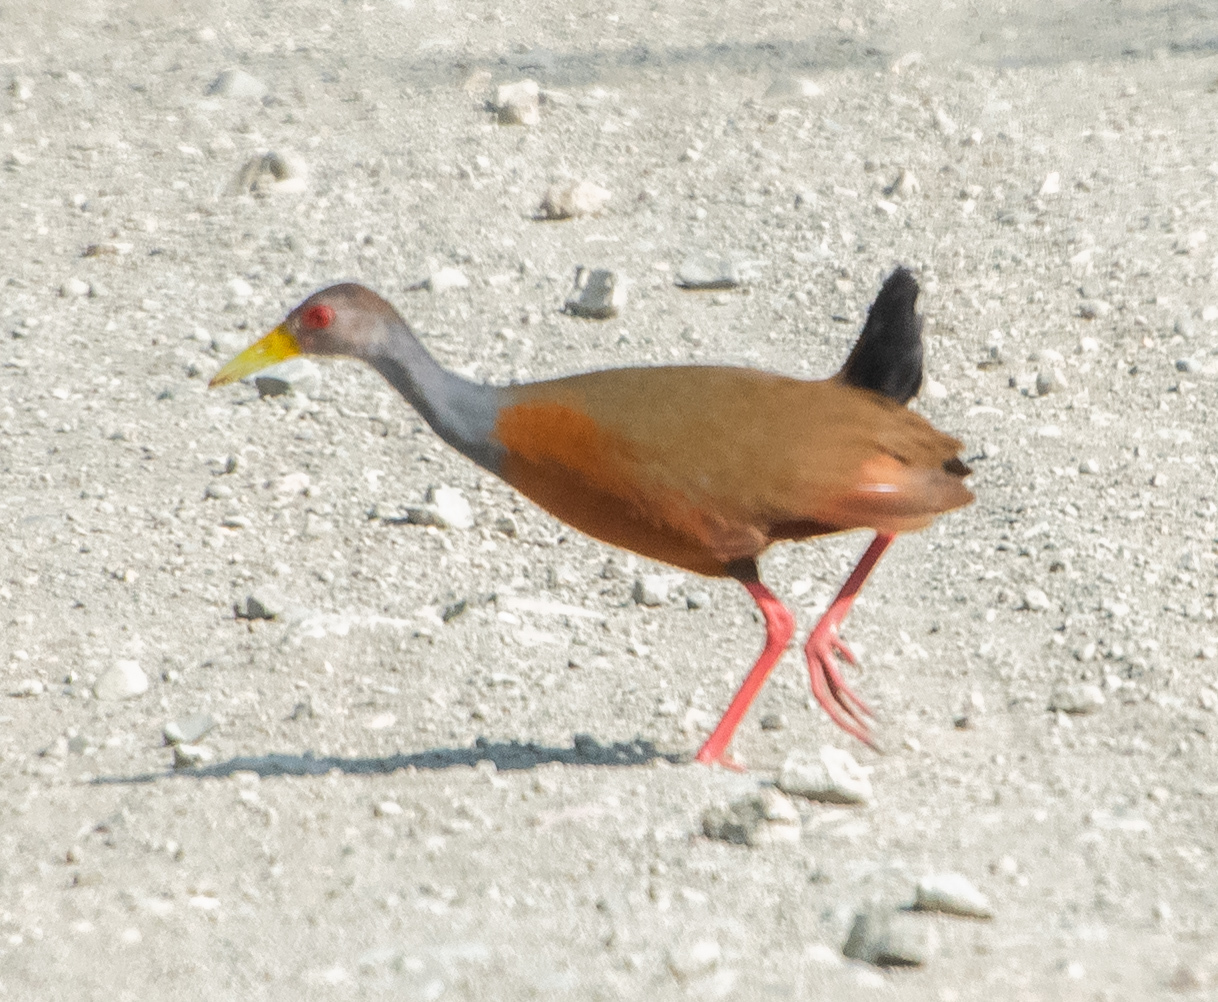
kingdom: Animalia
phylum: Chordata
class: Aves
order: Gruiformes
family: Rallidae
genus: Aramides
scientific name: Aramides cajanea
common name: Gray-necked wood-rail
